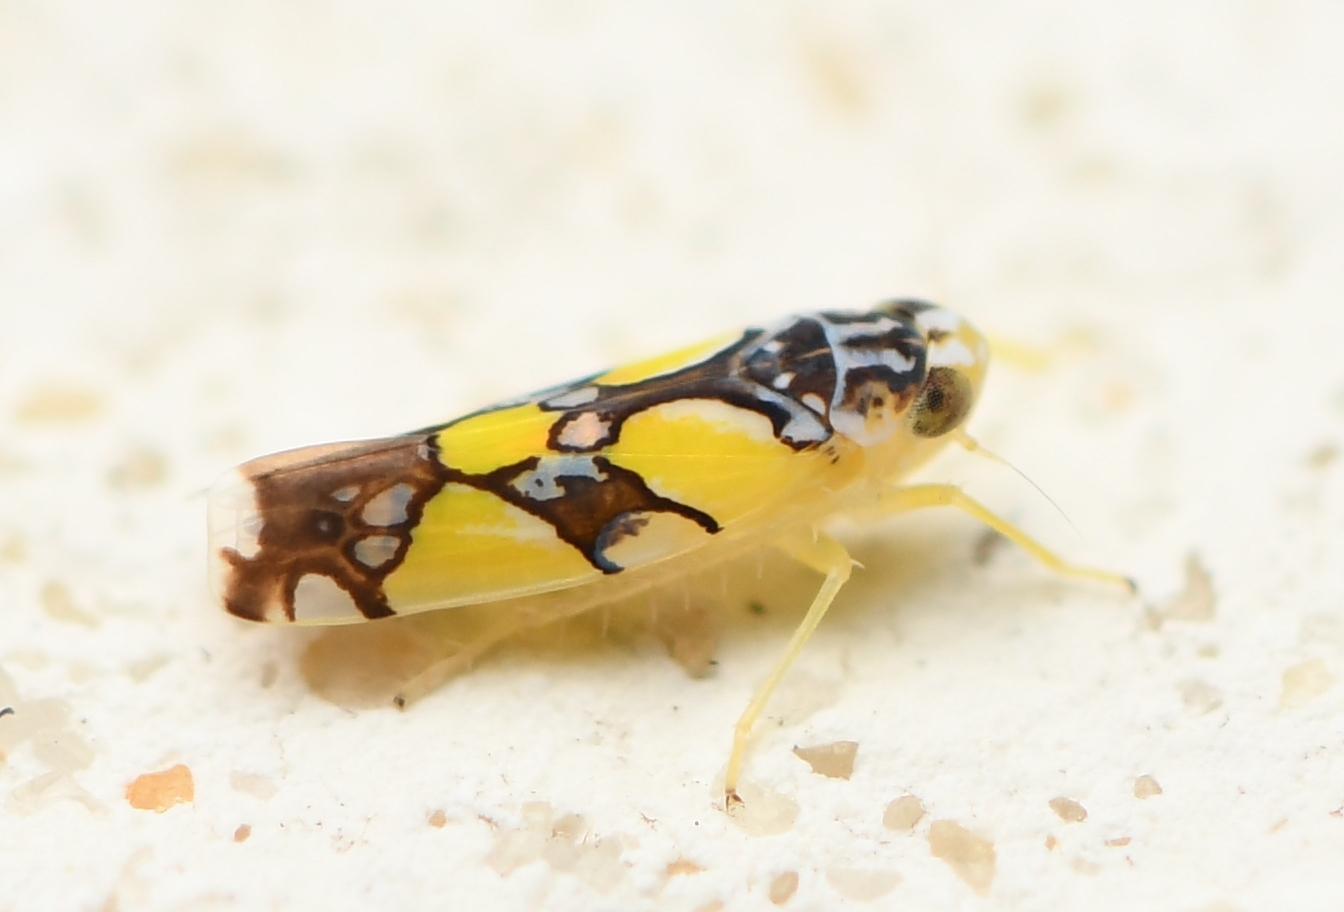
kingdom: Animalia
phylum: Arthropoda
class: Insecta
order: Hemiptera
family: Cicadellidae
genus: Protalebrella
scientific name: Protalebrella brasiliensis
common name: Brasilian leafhopper
